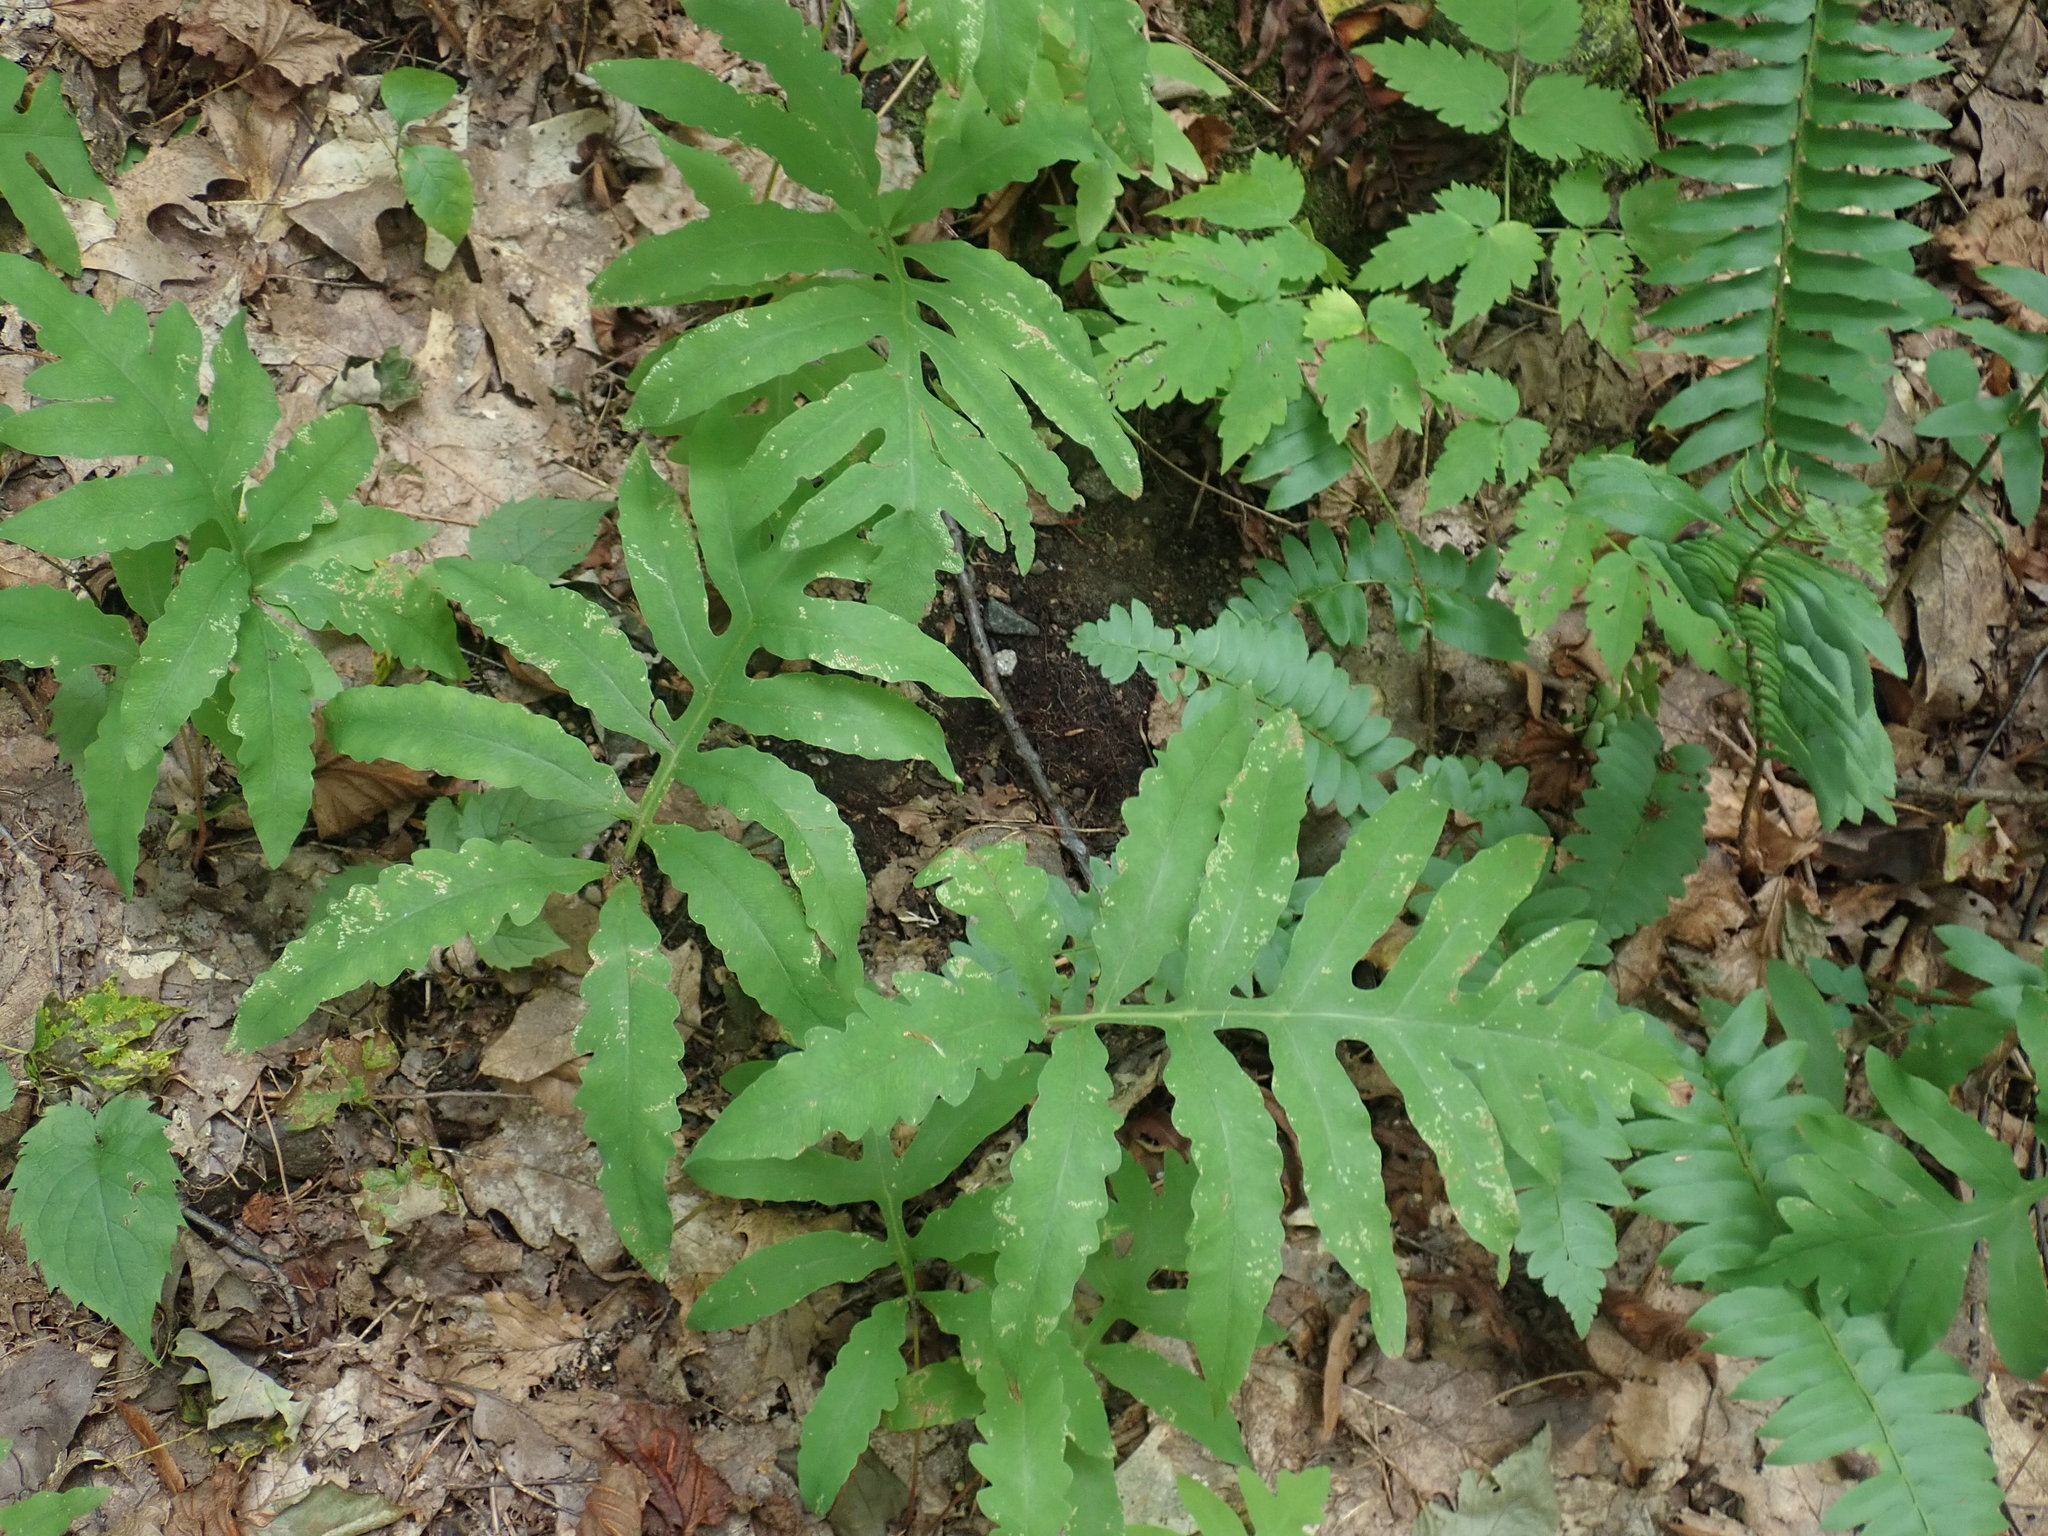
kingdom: Plantae
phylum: Tracheophyta
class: Polypodiopsida
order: Polypodiales
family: Onocleaceae
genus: Onoclea
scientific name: Onoclea sensibilis
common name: Sensitive fern
